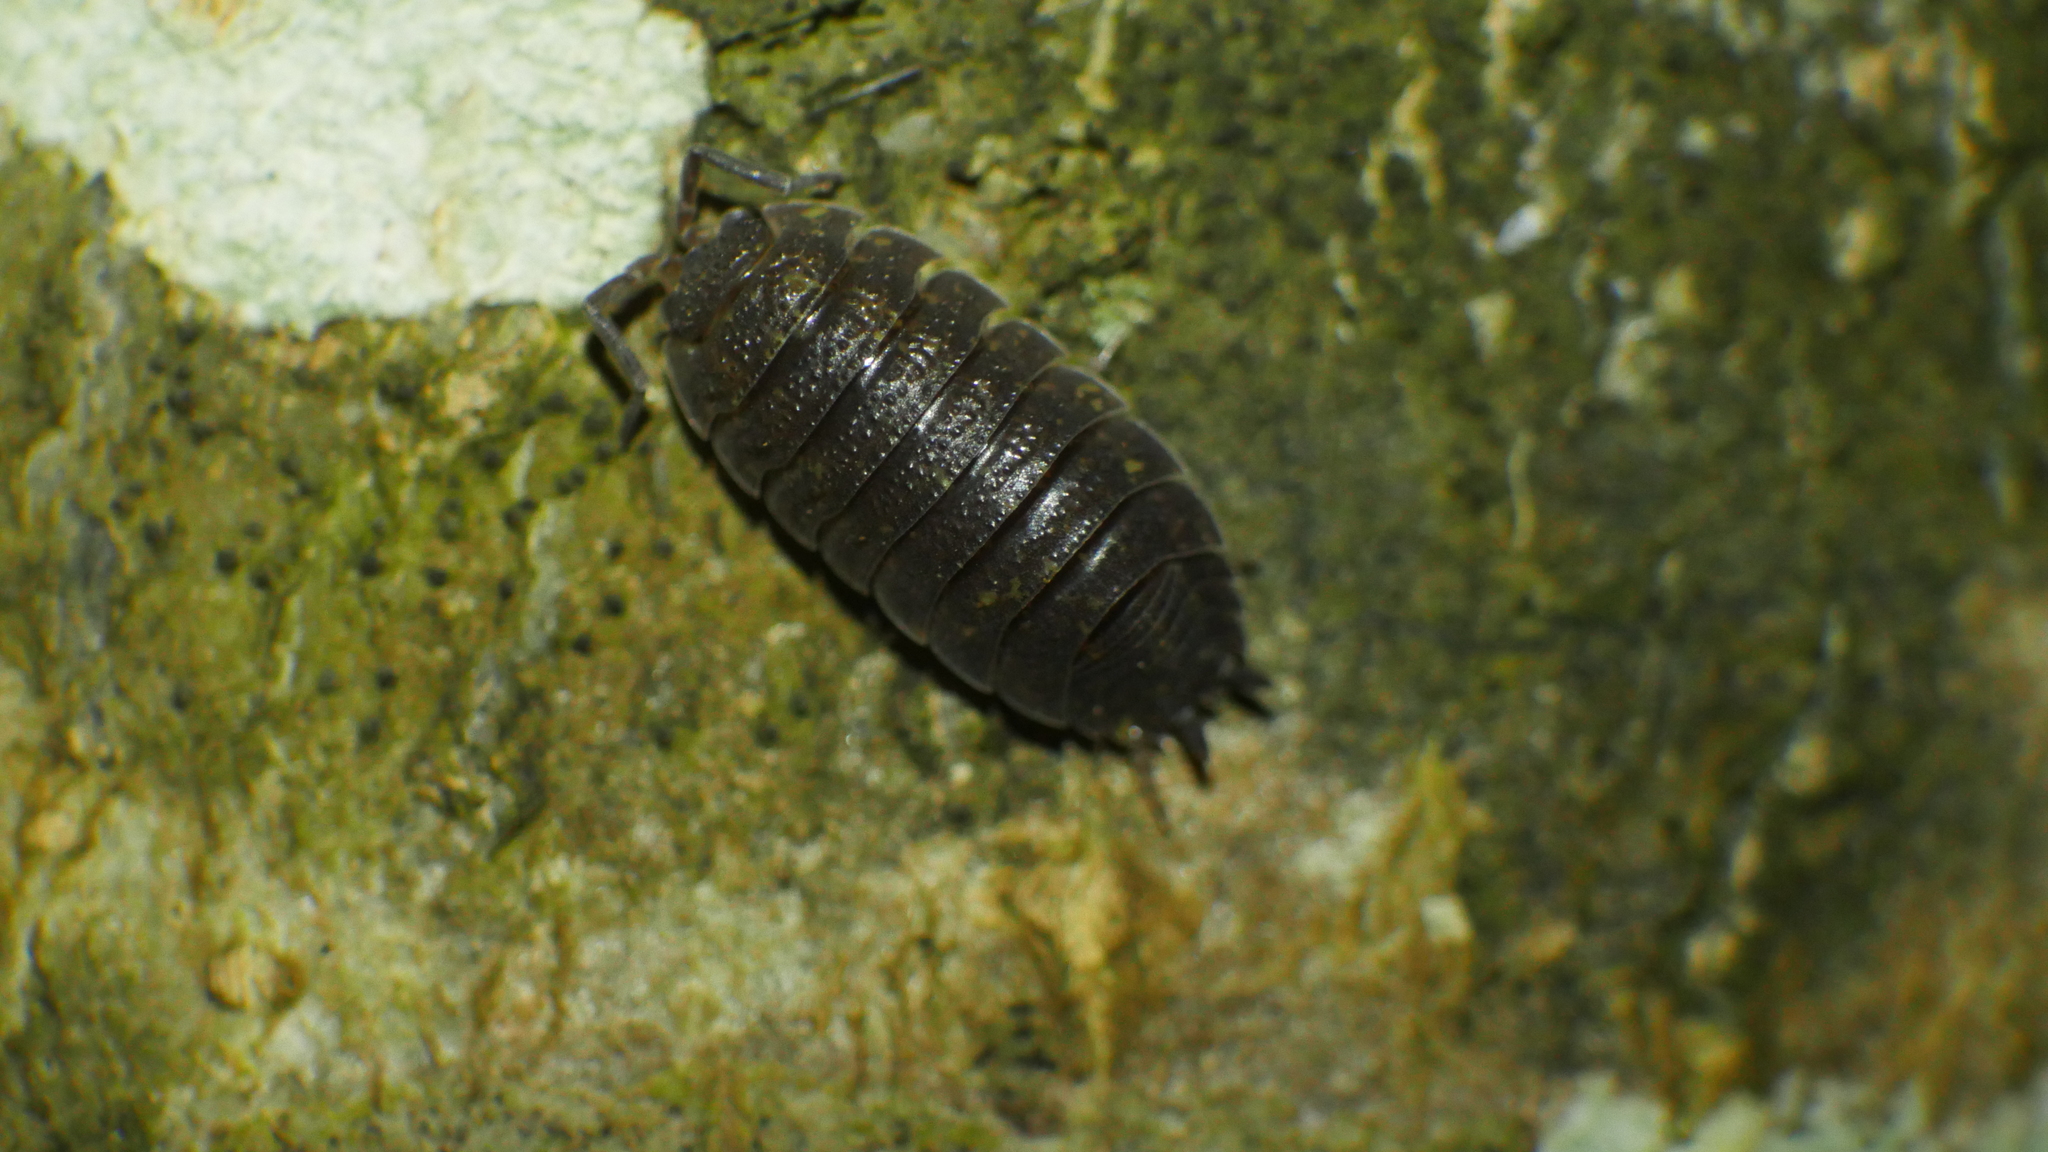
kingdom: Animalia
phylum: Arthropoda
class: Malacostraca
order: Isopoda
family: Porcellionidae
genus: Porcellio
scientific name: Porcellio scaber
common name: Common rough woodlouse
